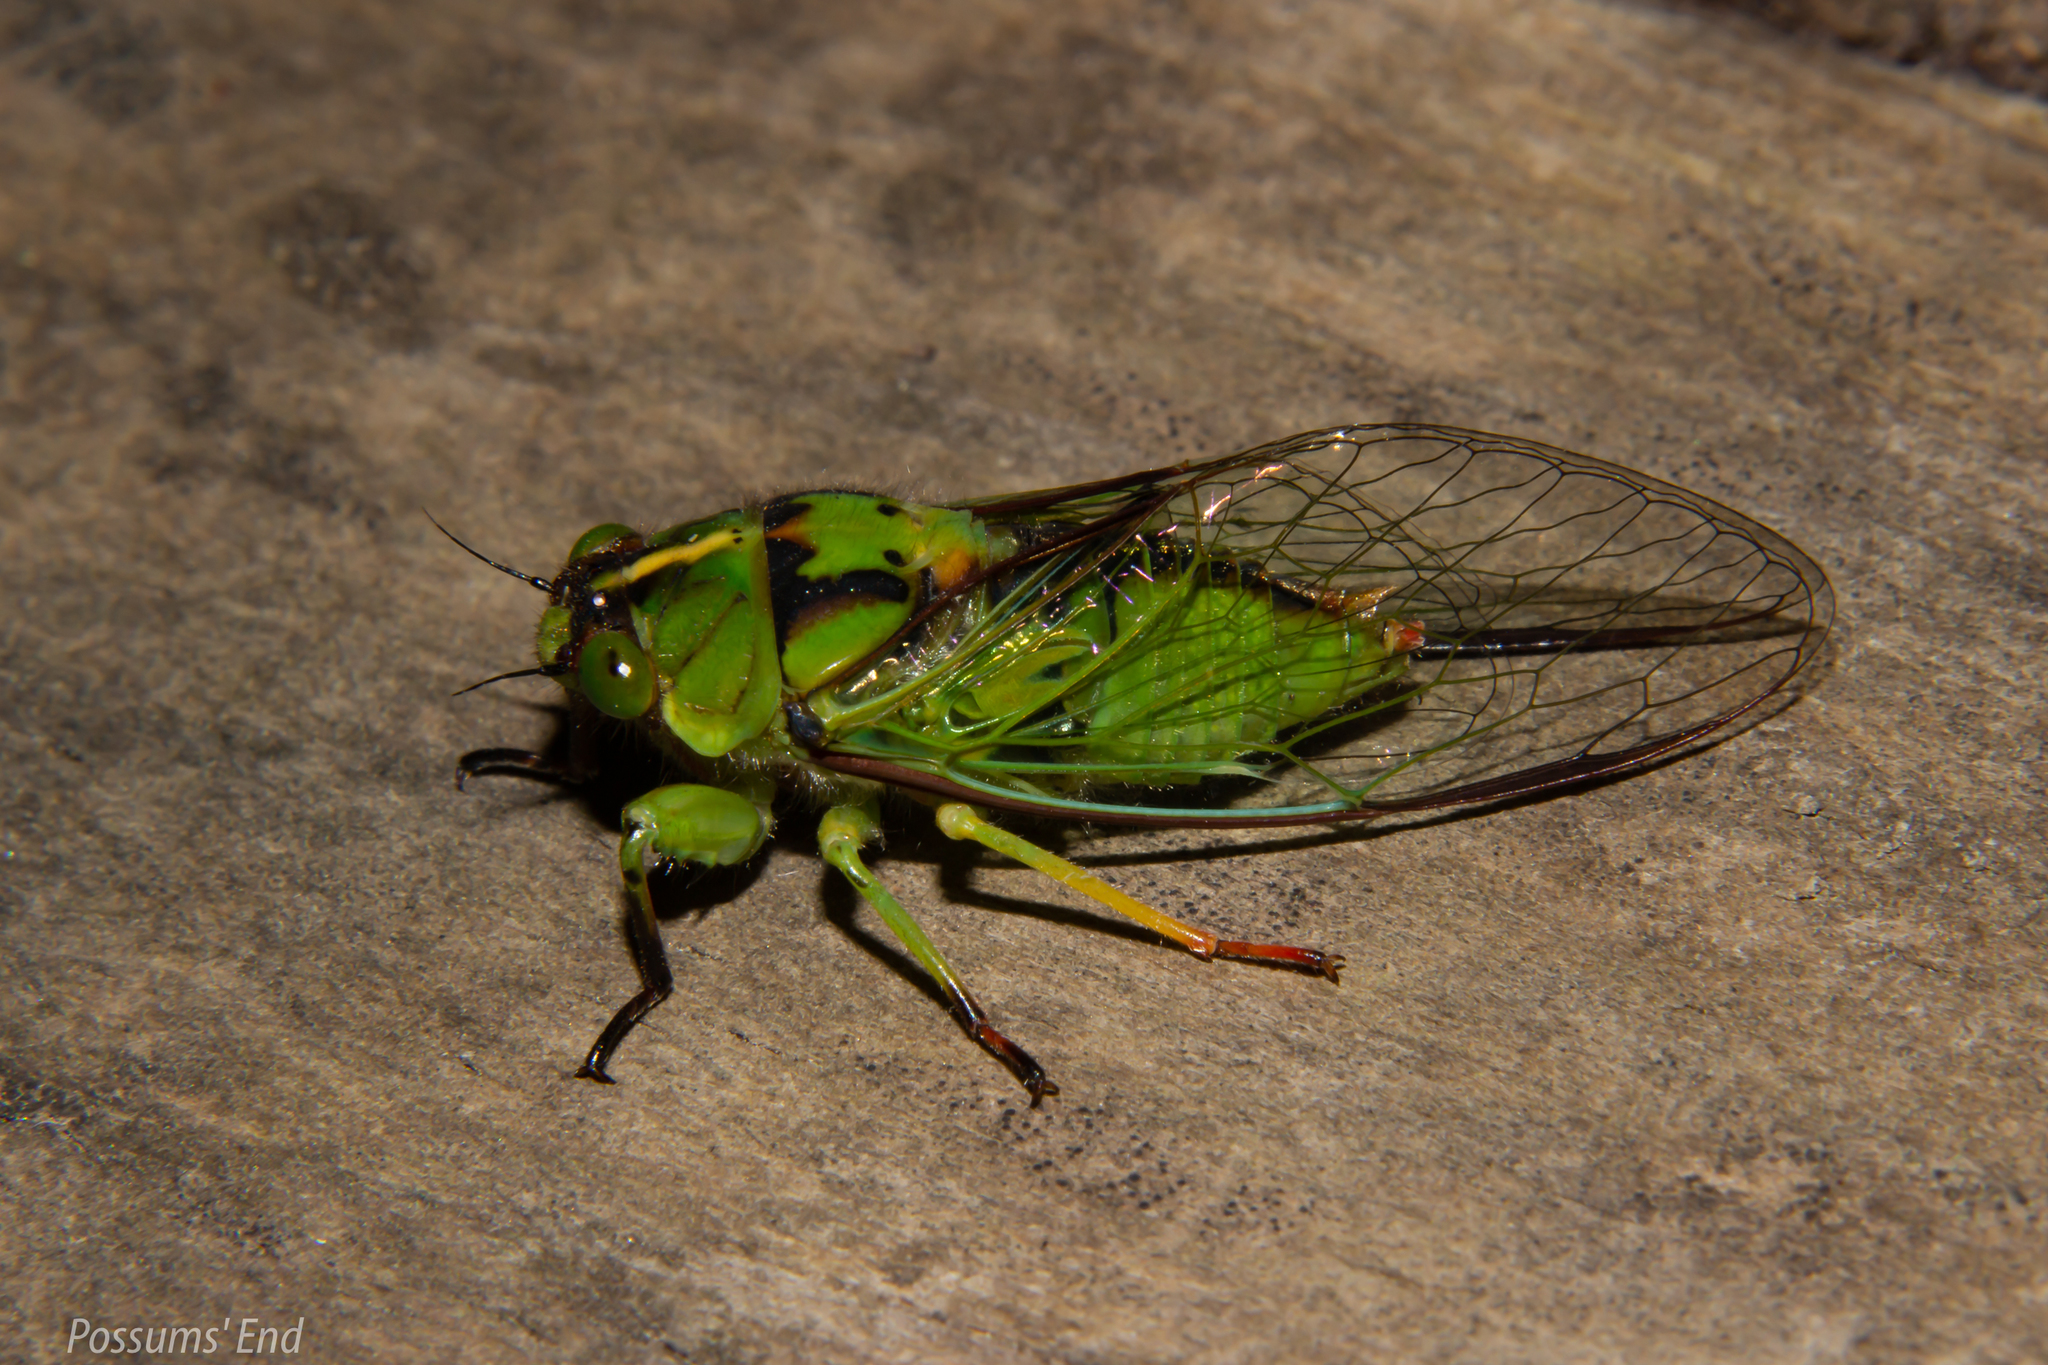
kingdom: Animalia
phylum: Arthropoda
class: Insecta
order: Hemiptera
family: Cicadidae
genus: Kikihia
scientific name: Kikihia subalpina
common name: Chathams cicada
